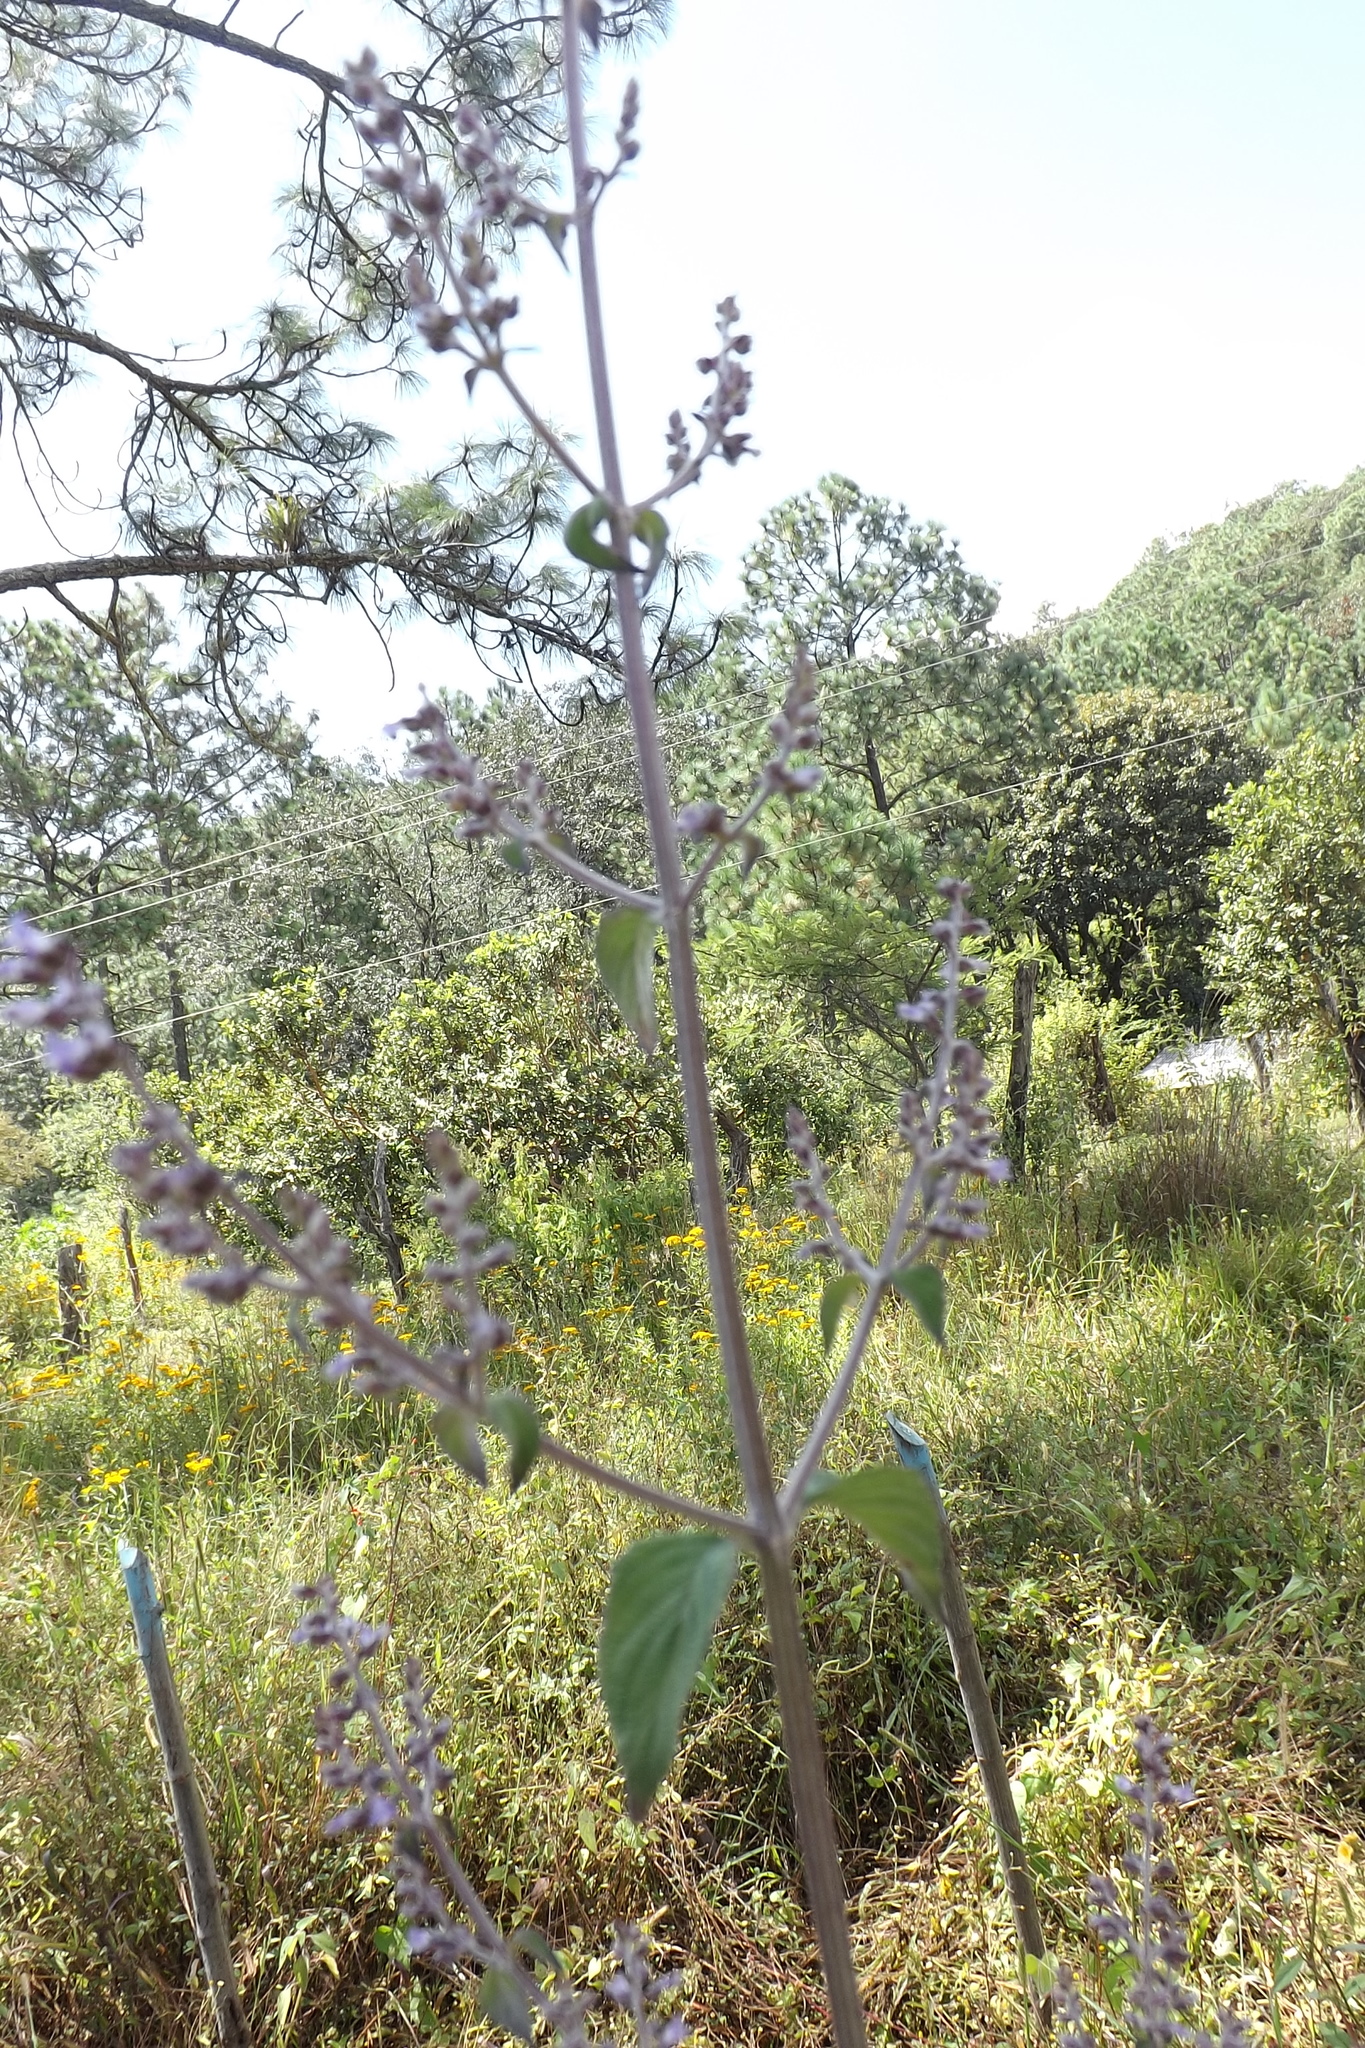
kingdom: Plantae
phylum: Tracheophyta
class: Magnoliopsida
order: Lamiales
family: Lamiaceae
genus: Cantinoa
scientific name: Cantinoa mutabilis
